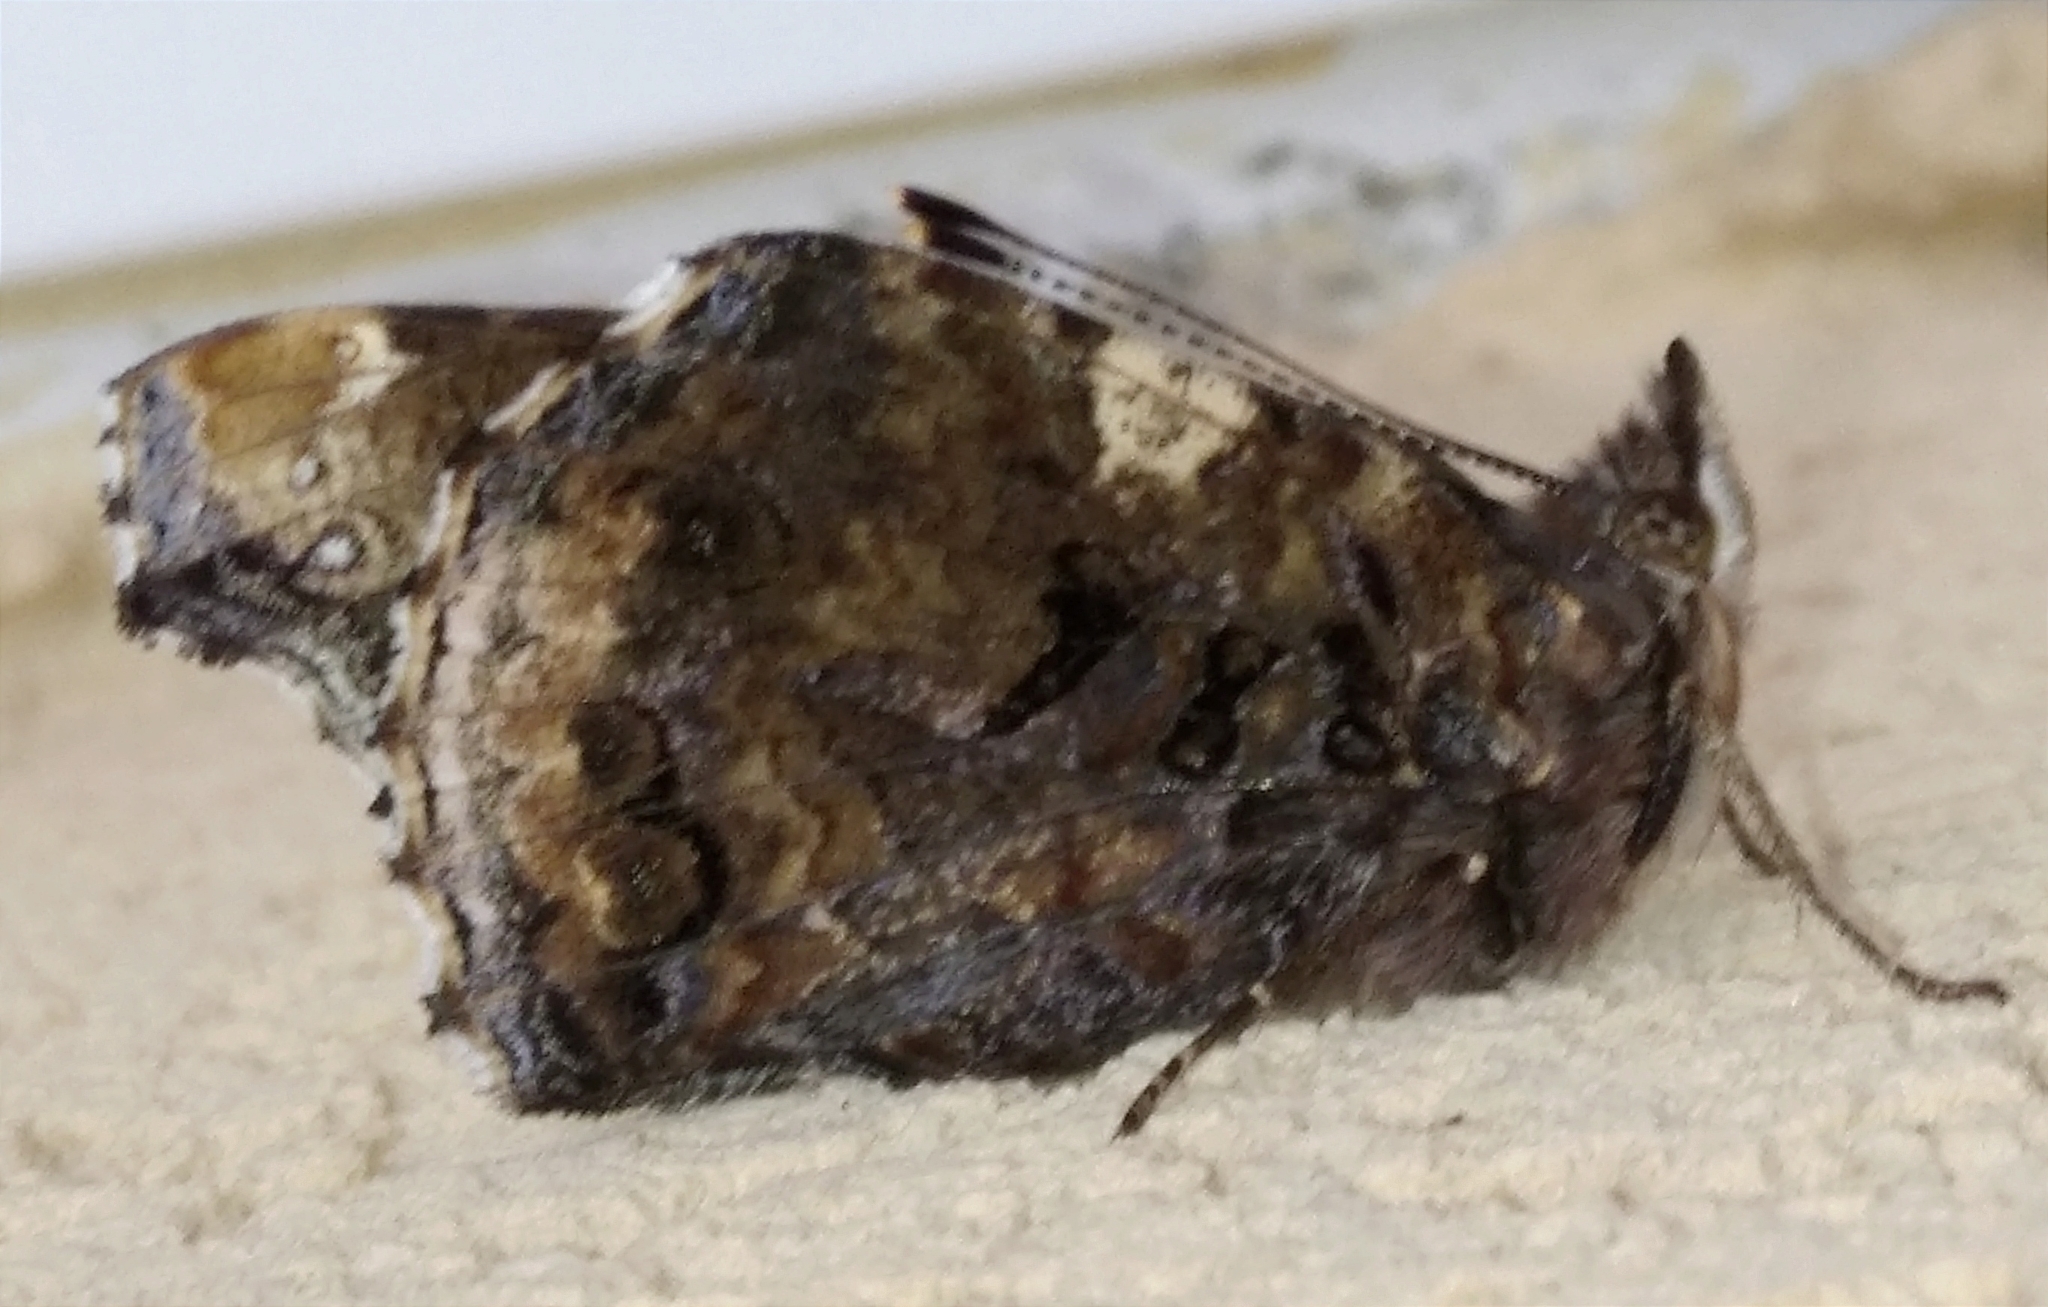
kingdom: Animalia
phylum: Arthropoda
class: Insecta
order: Lepidoptera
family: Nymphalidae
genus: Vanessa
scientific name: Vanessa atalanta
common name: Red admiral
